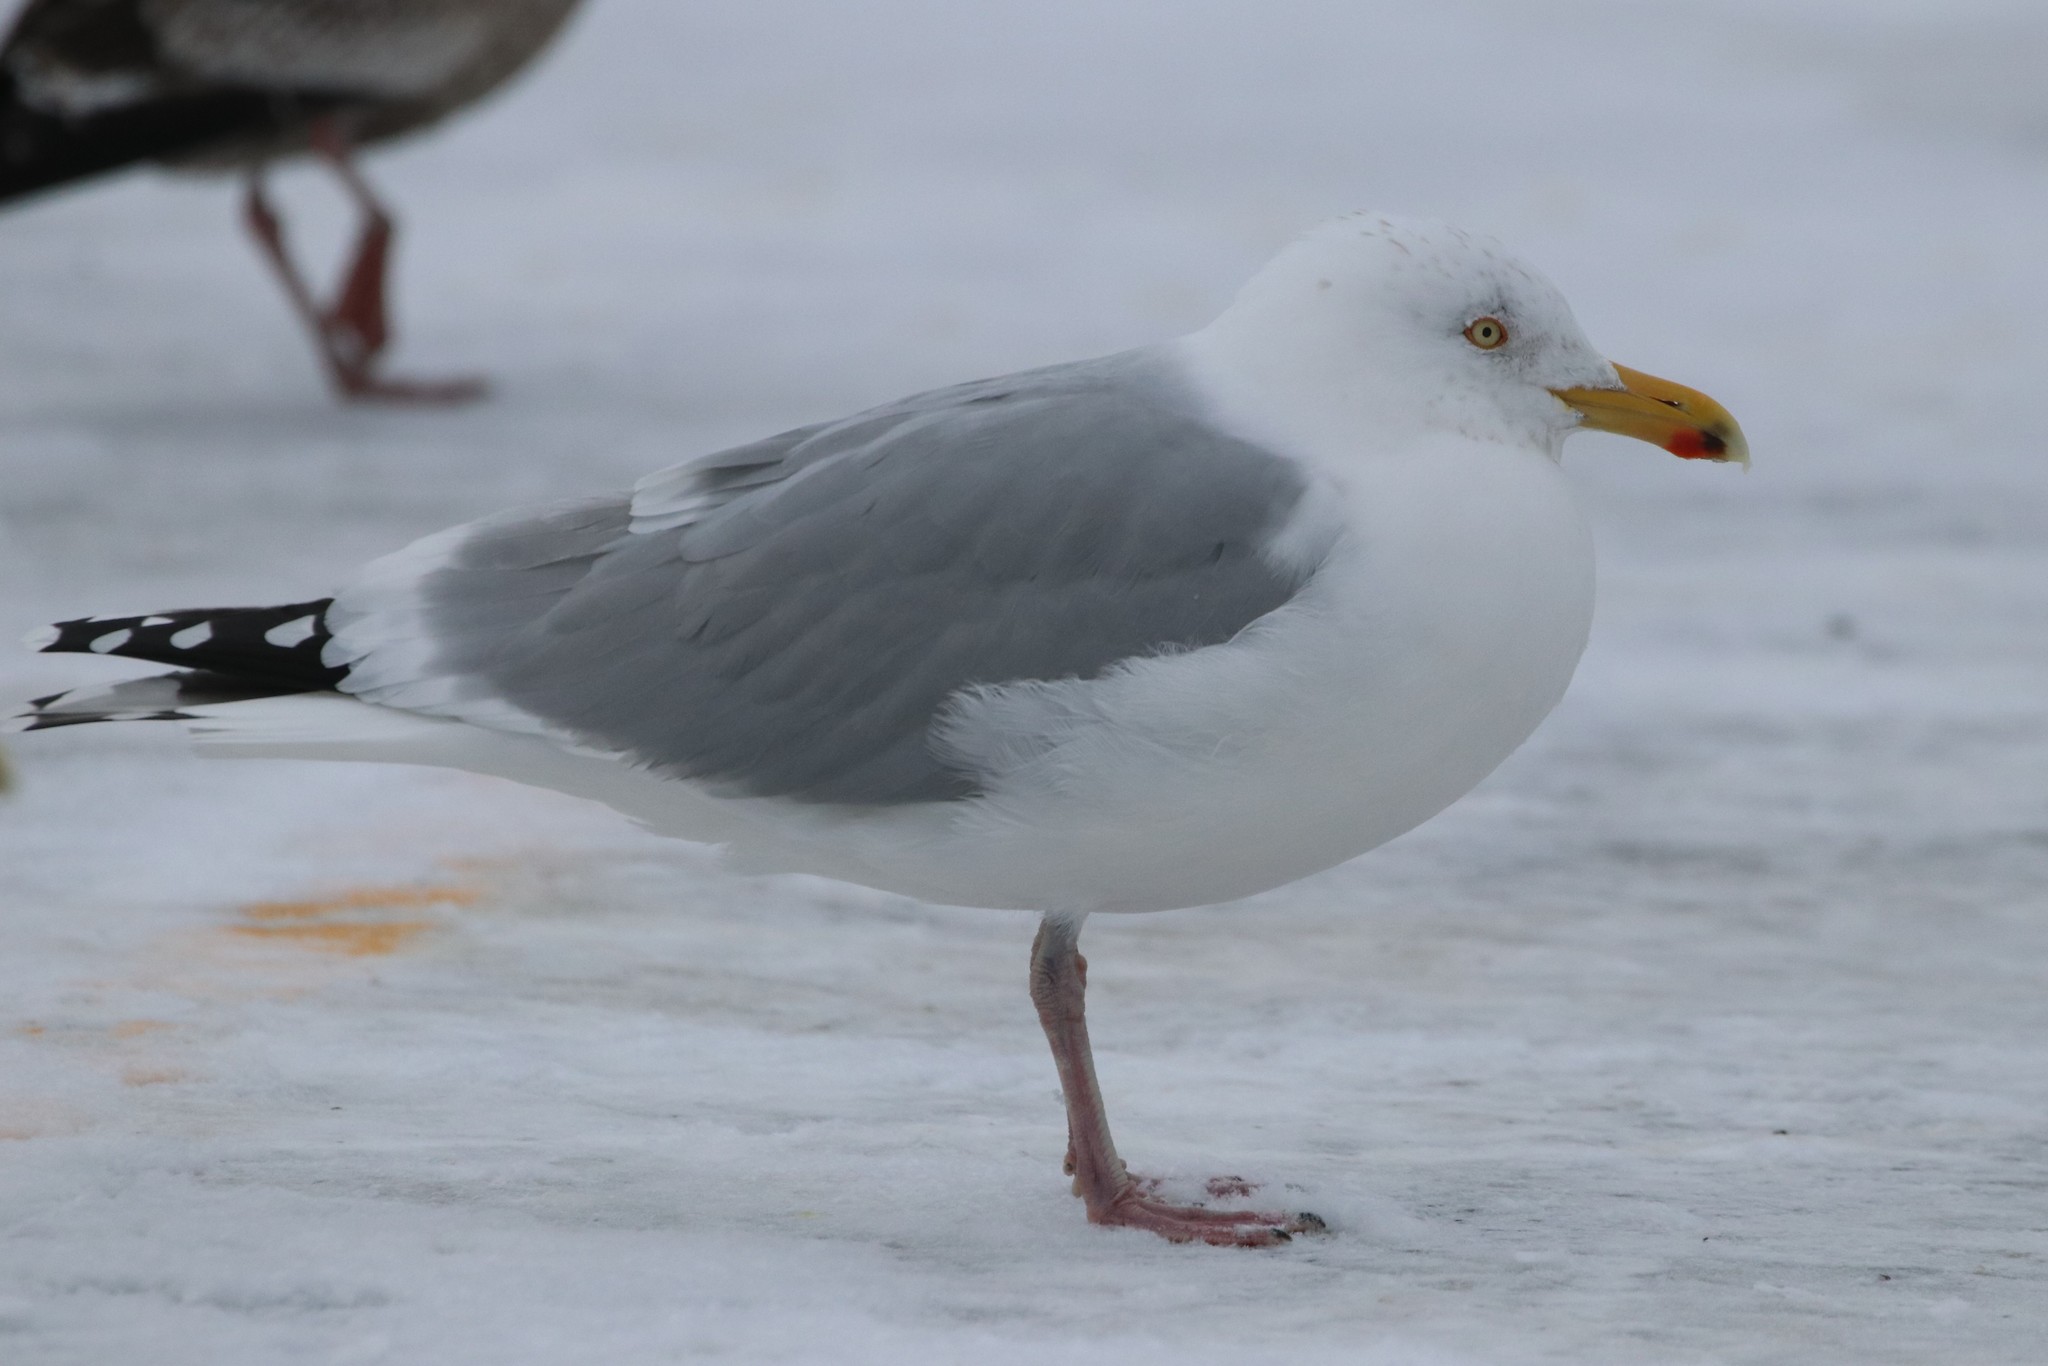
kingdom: Animalia
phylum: Chordata
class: Aves
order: Charadriiformes
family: Laridae
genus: Larus
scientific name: Larus argentatus
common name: Herring gull
